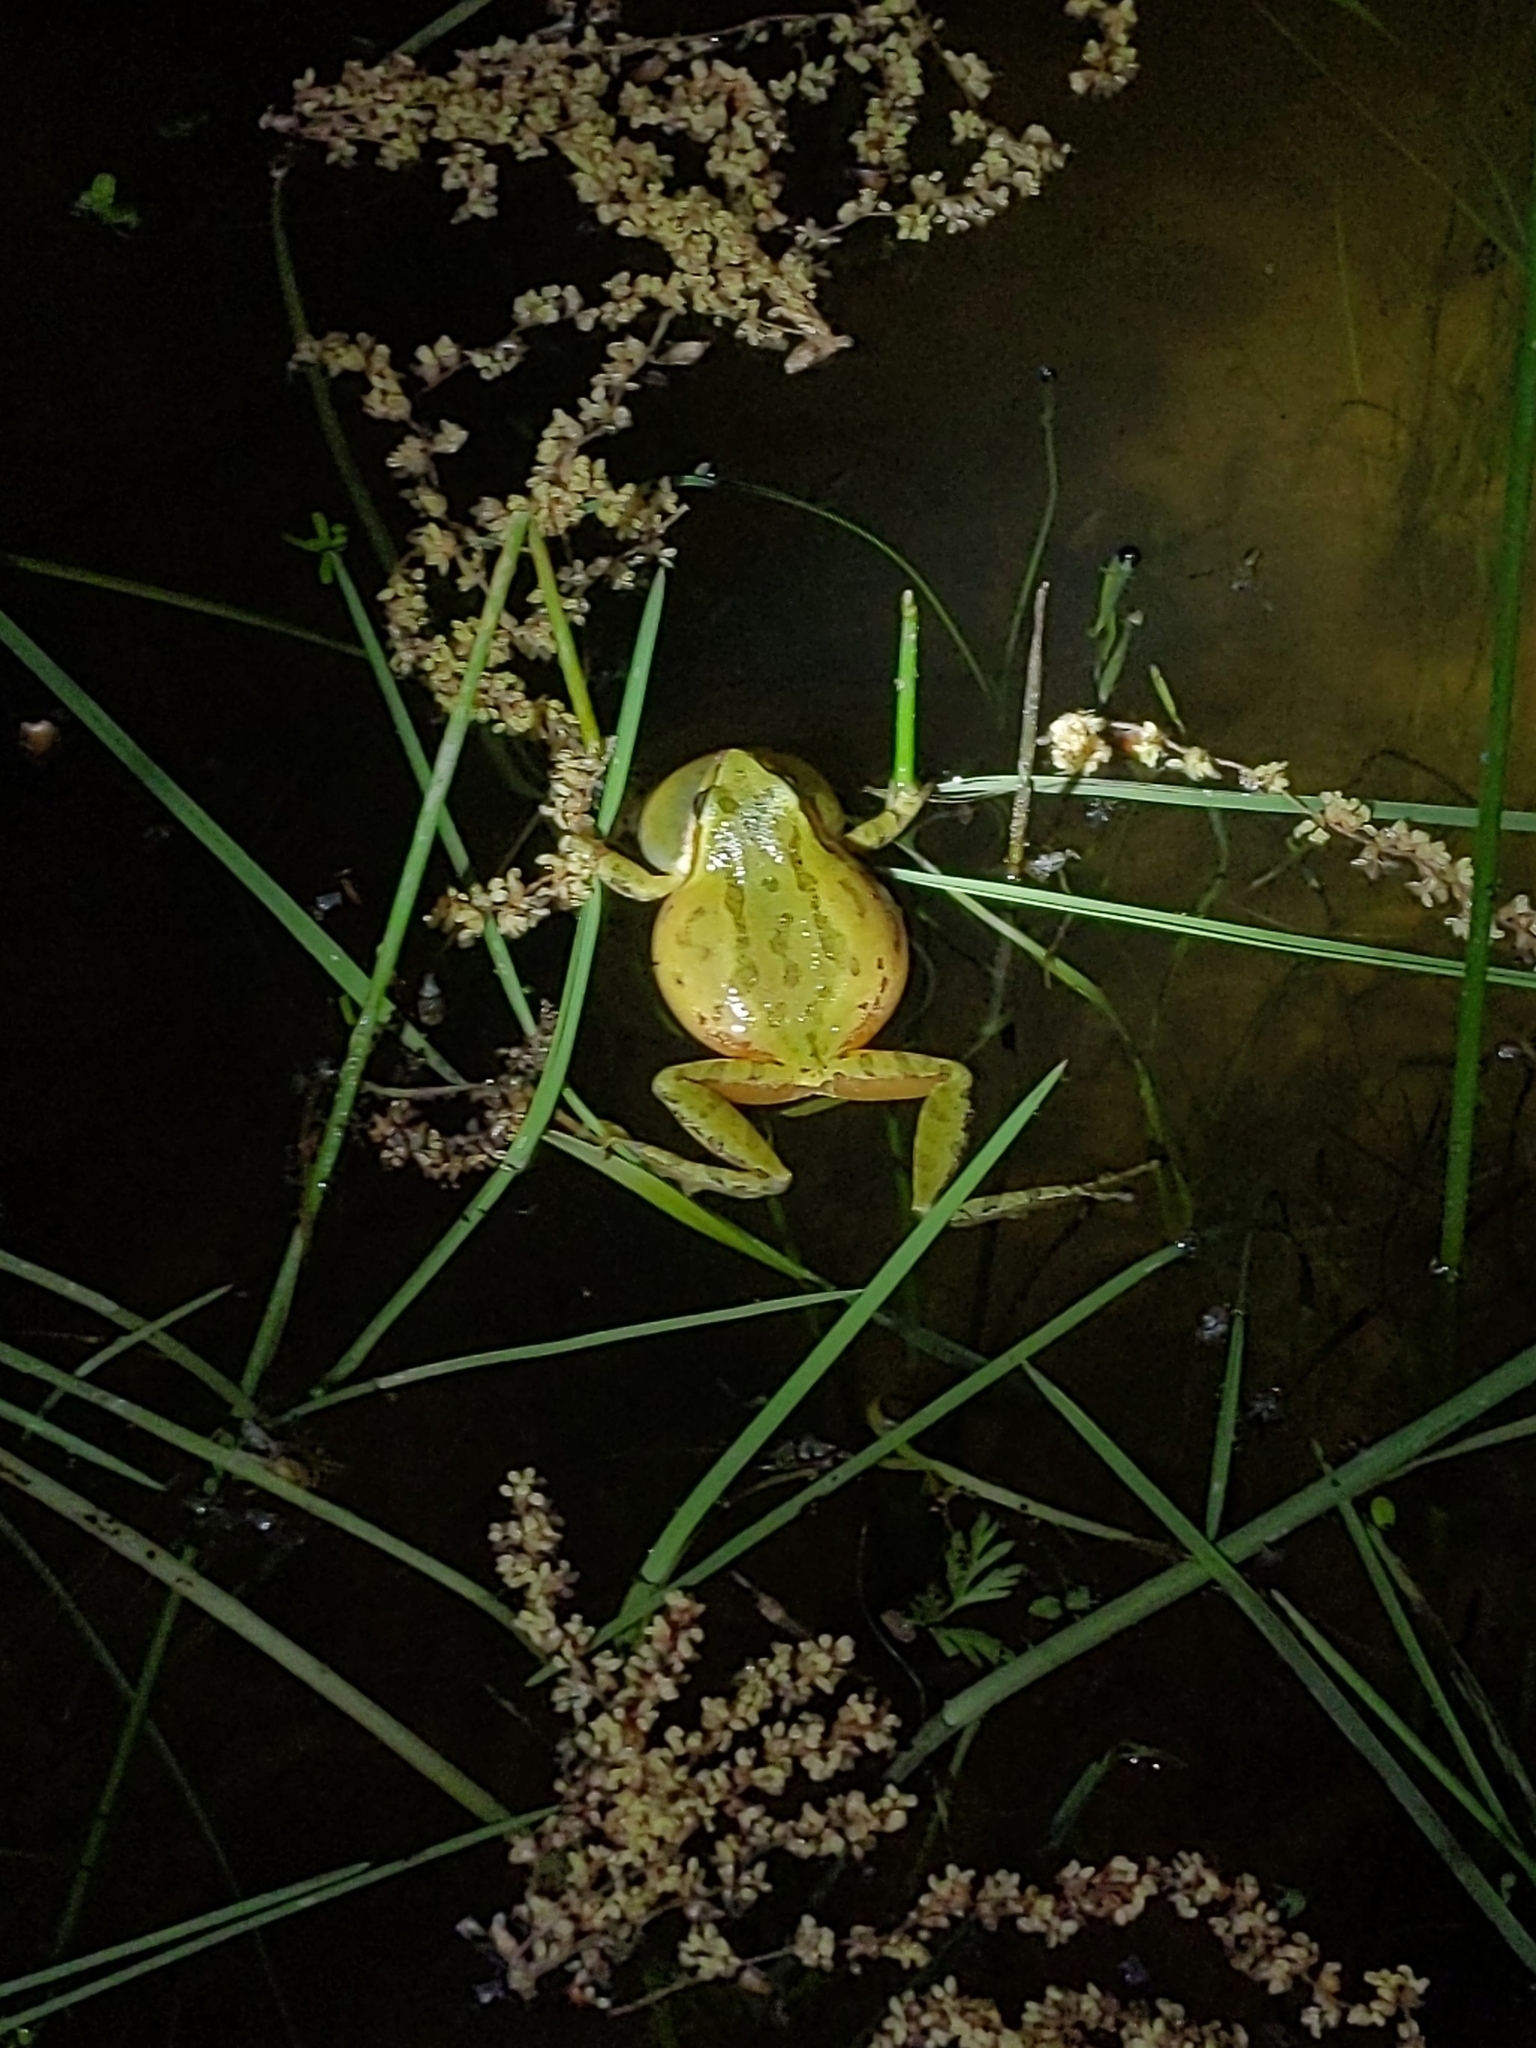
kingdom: Animalia
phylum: Chordata
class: Amphibia
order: Anura
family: Hylidae
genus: Pseudacris
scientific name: Pseudacris regilla
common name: Pacific chorus frog
